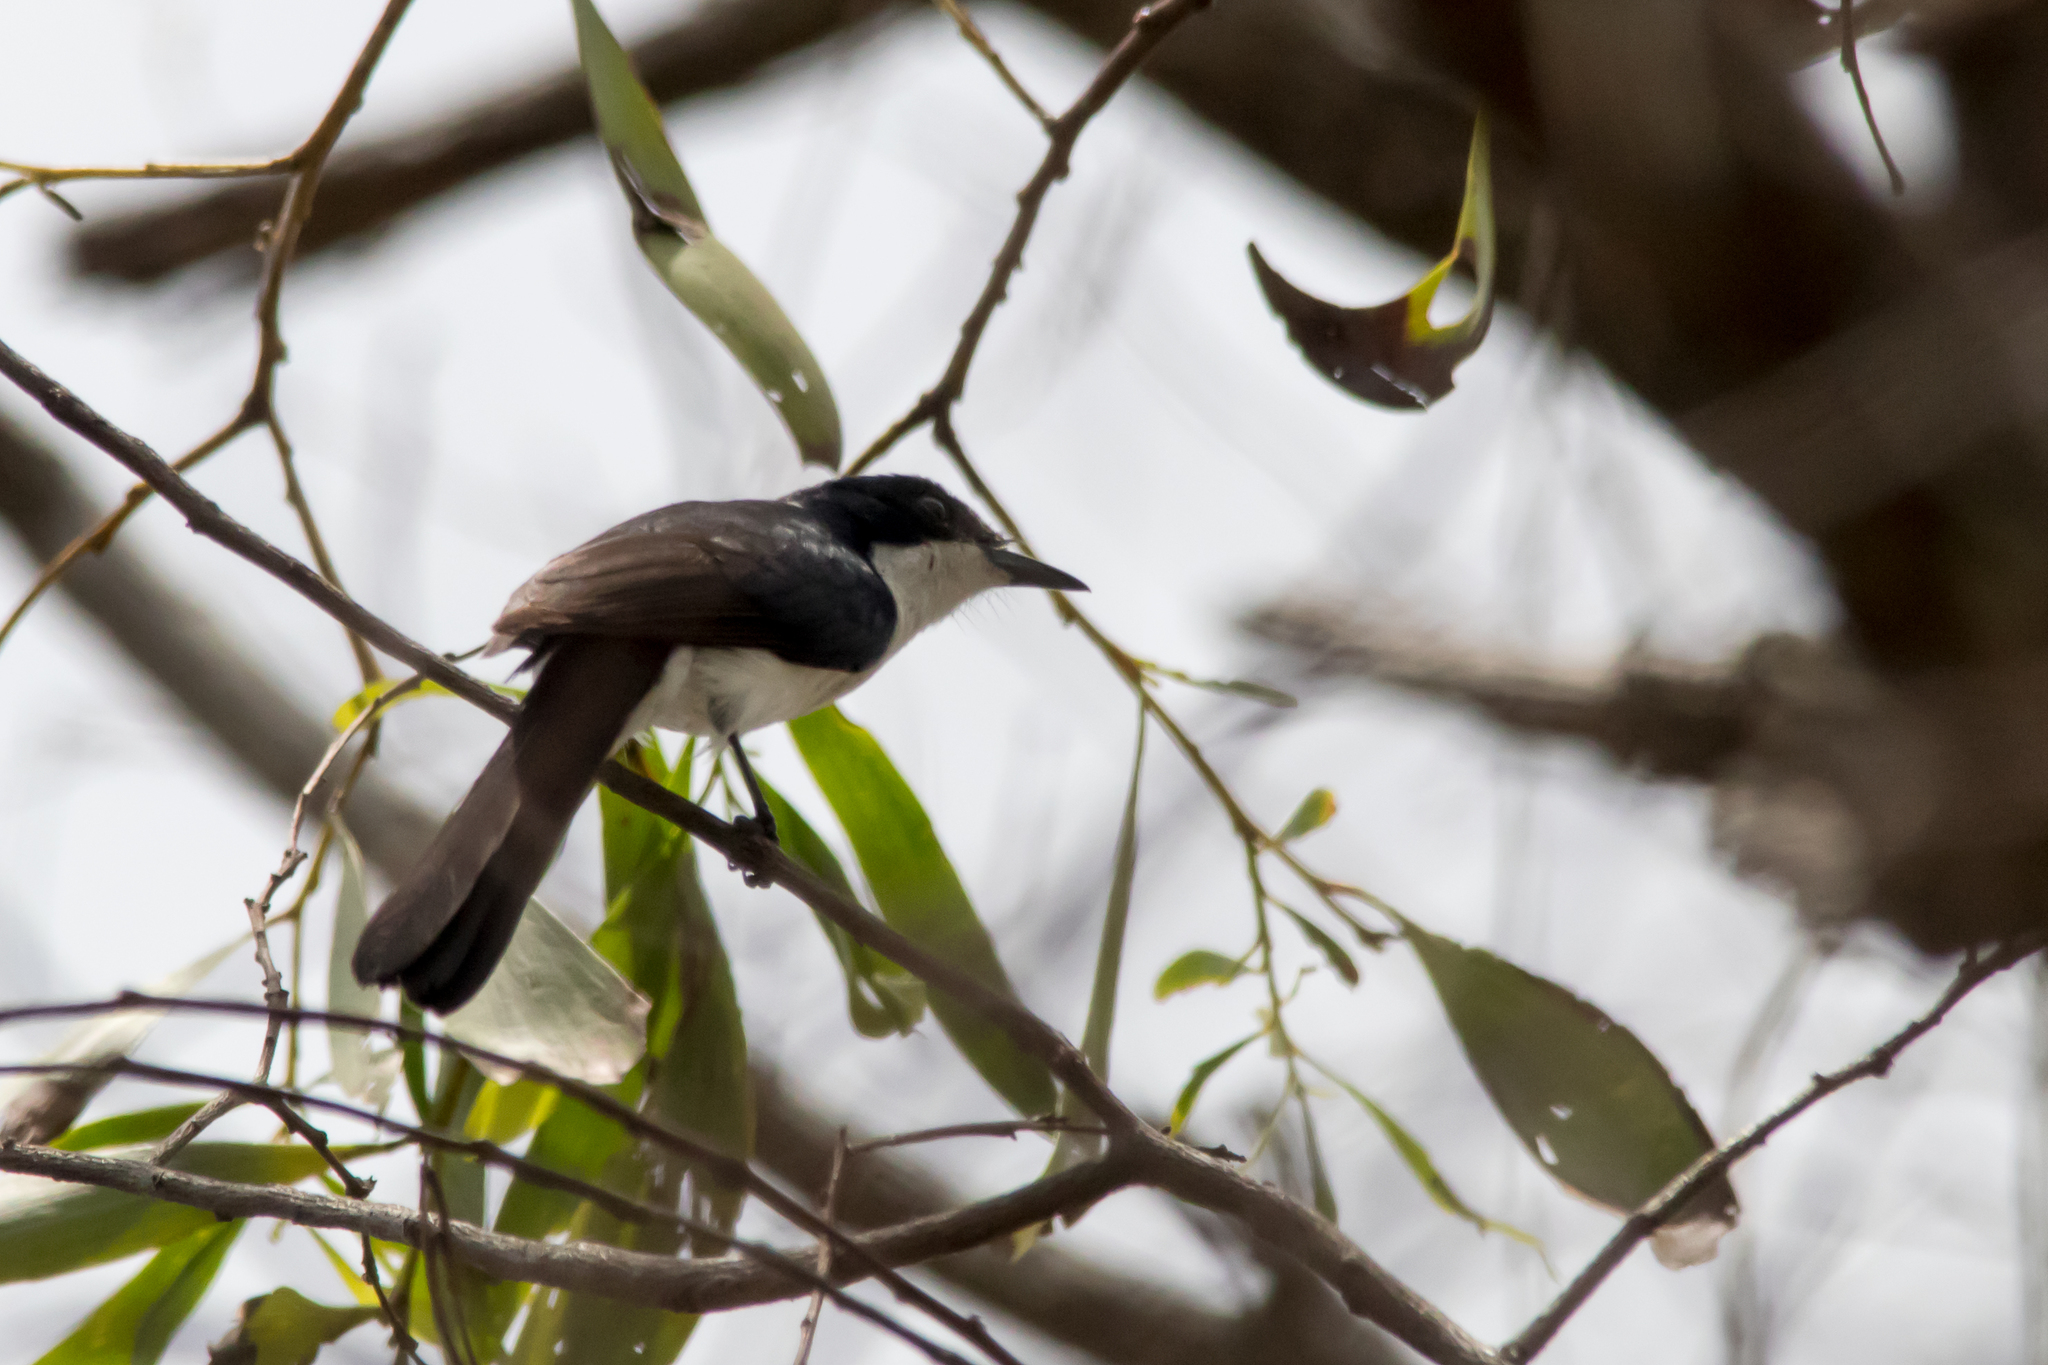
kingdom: Animalia
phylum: Chordata
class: Aves
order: Passeriformes
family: Monarchidae
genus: Myiagra
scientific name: Myiagra nana
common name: Paperbark flycatcher
